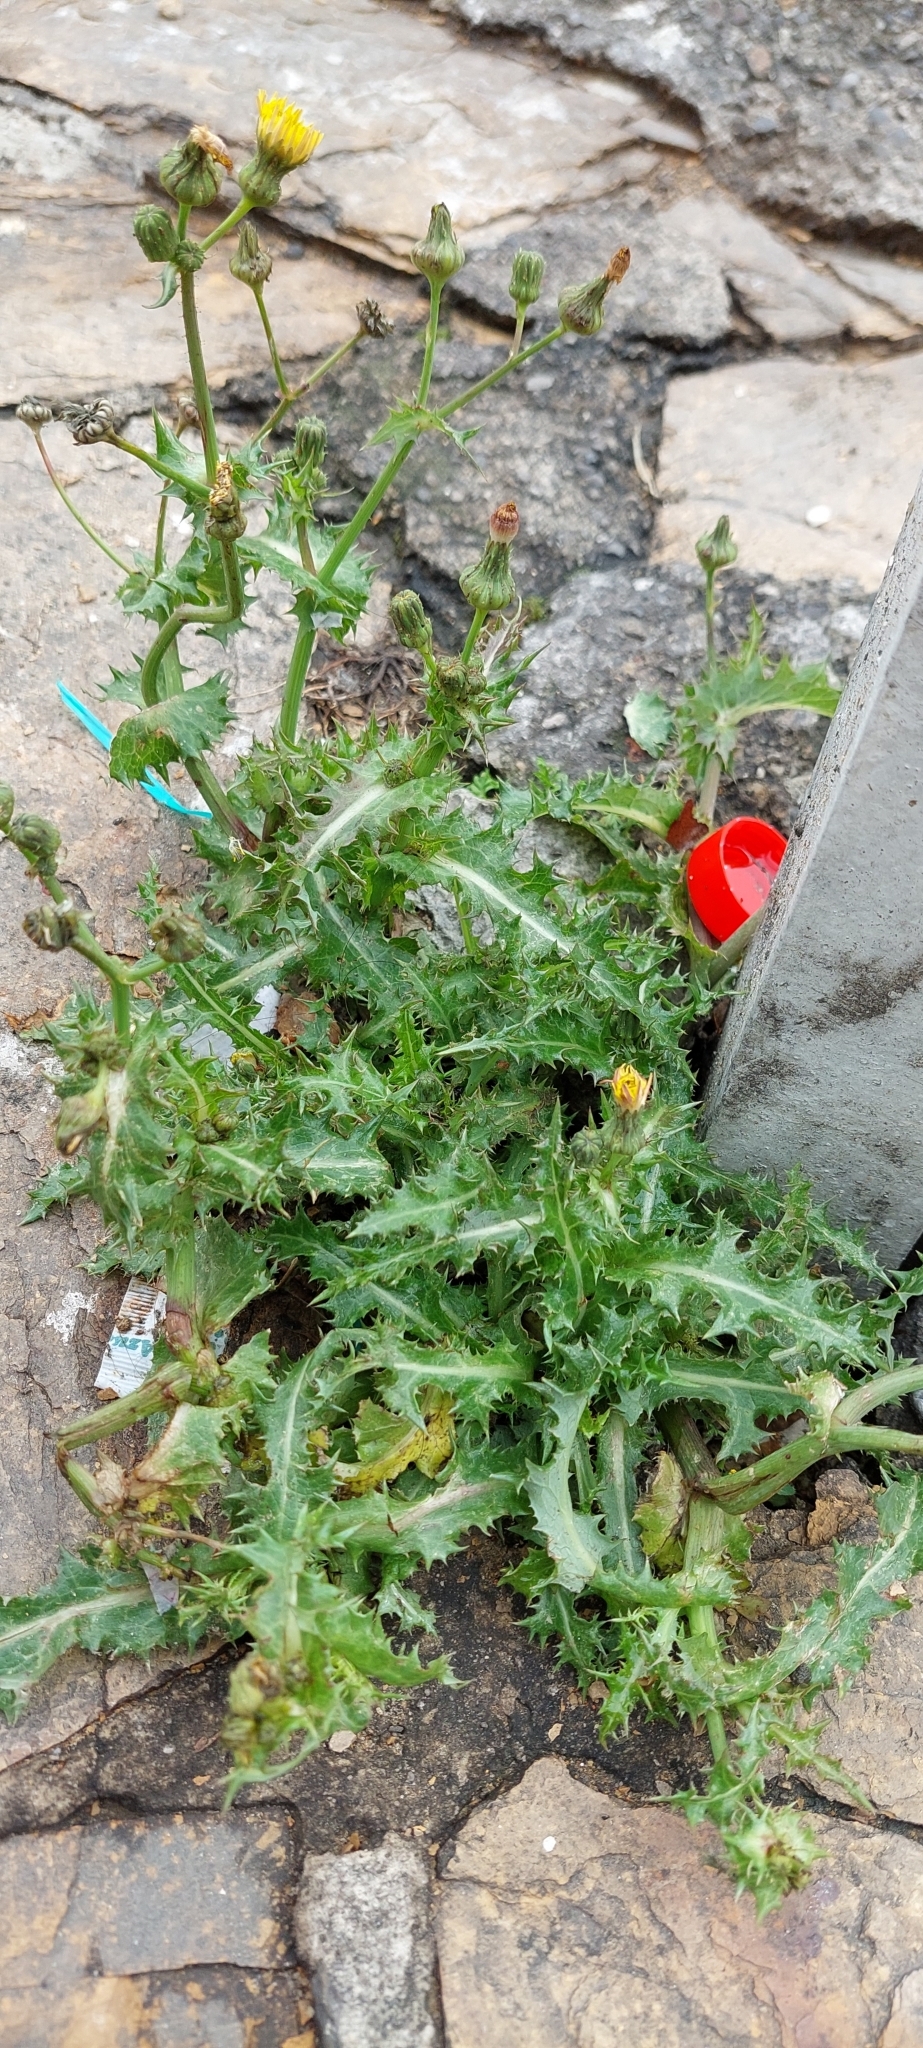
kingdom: Plantae
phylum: Tracheophyta
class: Magnoliopsida
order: Asterales
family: Asteraceae
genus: Sonchus
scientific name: Sonchus asper
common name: Prickly sow-thistle
